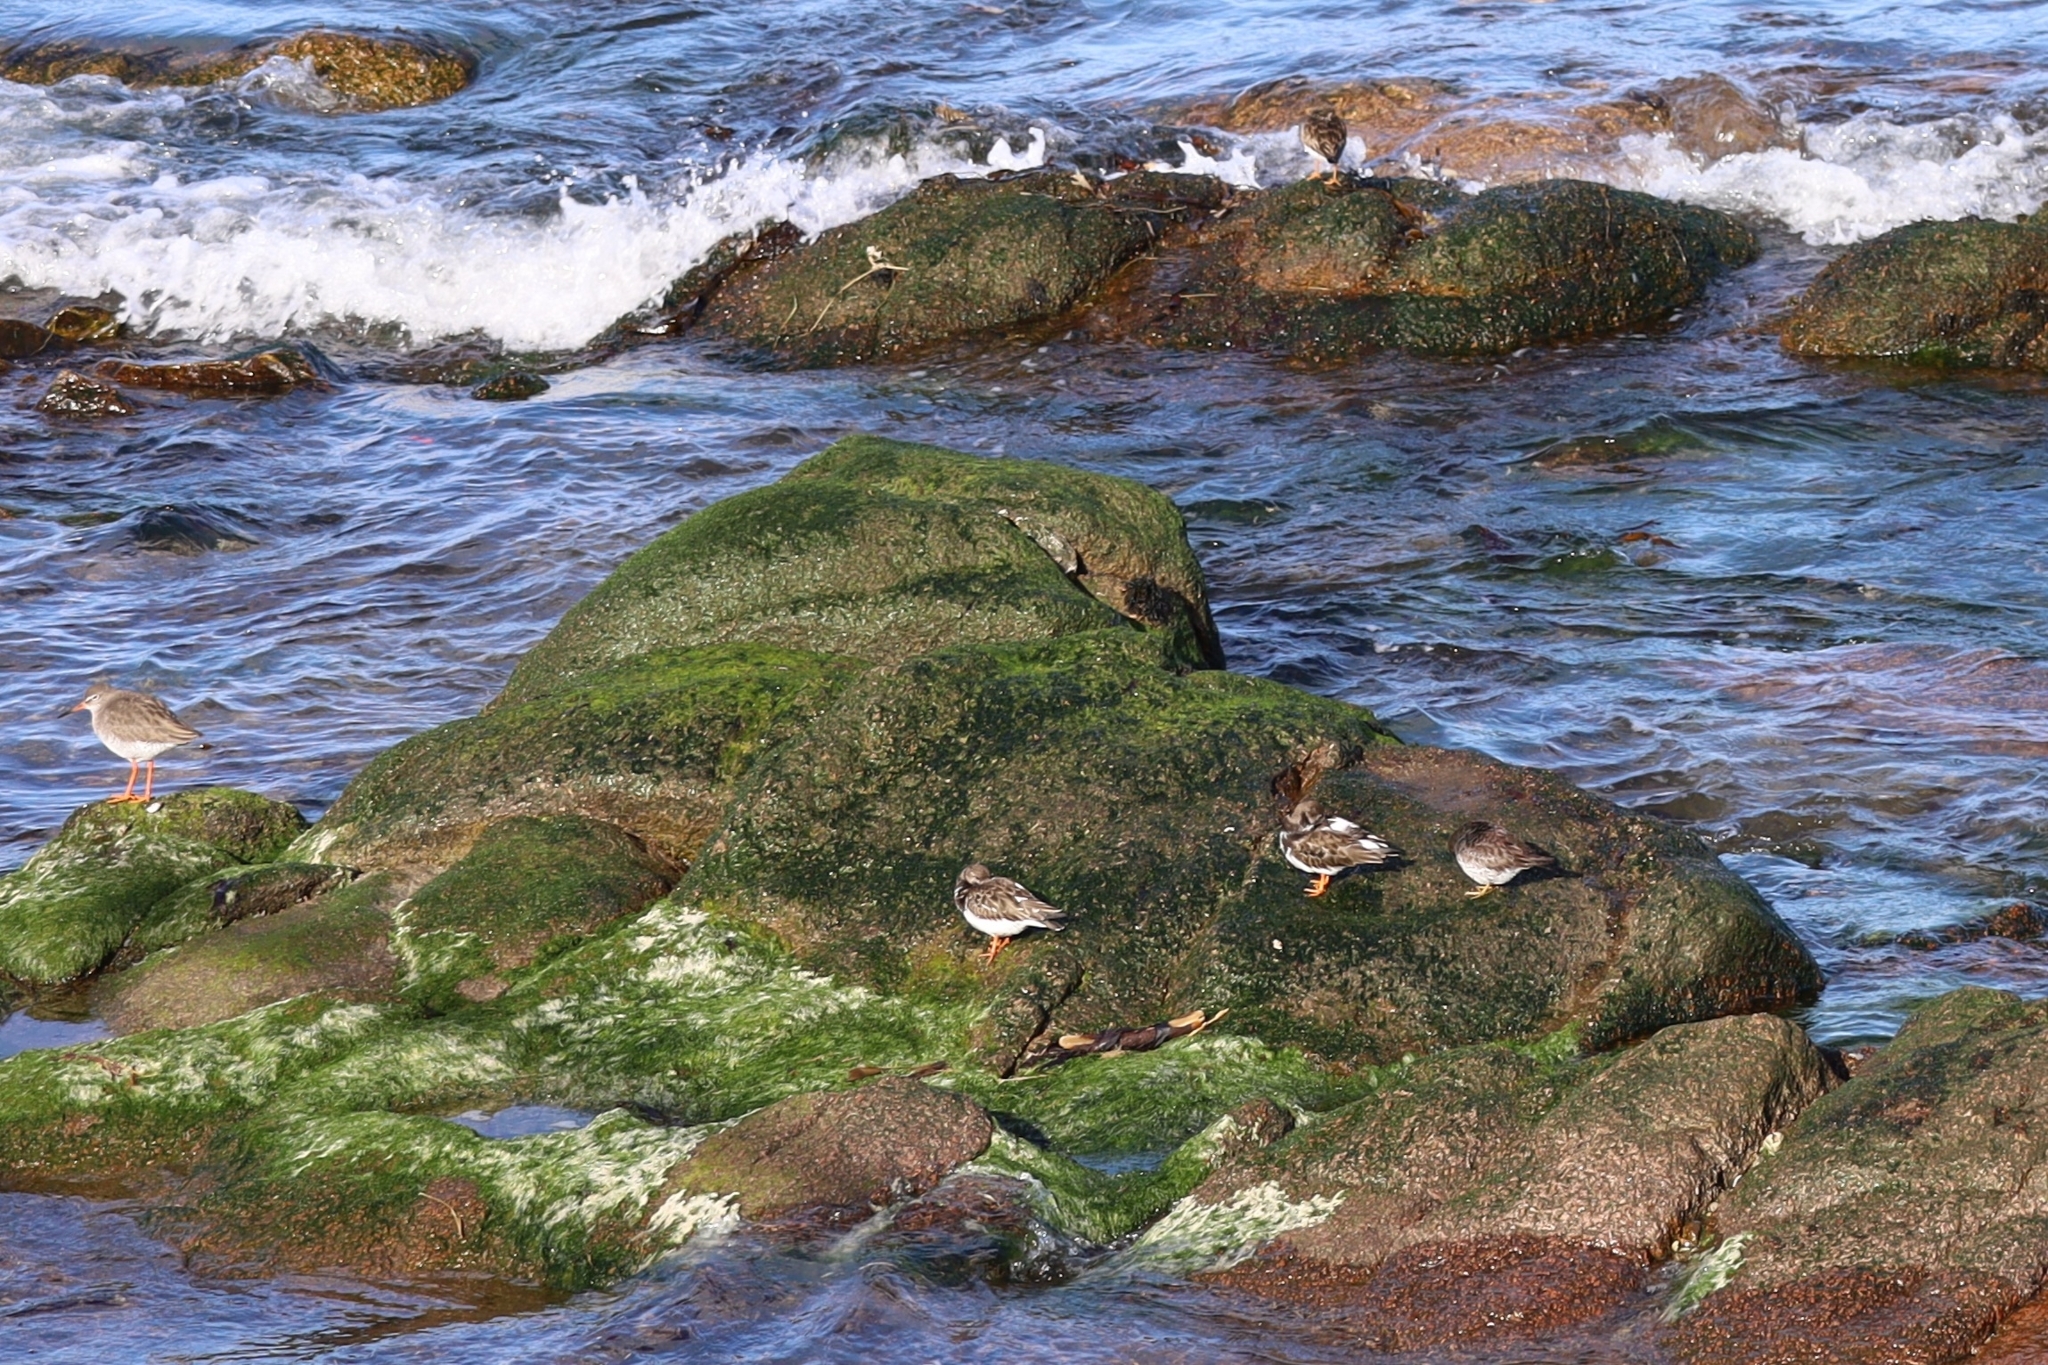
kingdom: Animalia
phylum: Chordata
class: Aves
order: Charadriiformes
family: Scolopacidae
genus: Calidris
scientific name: Calidris maritima
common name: Purple sandpiper
